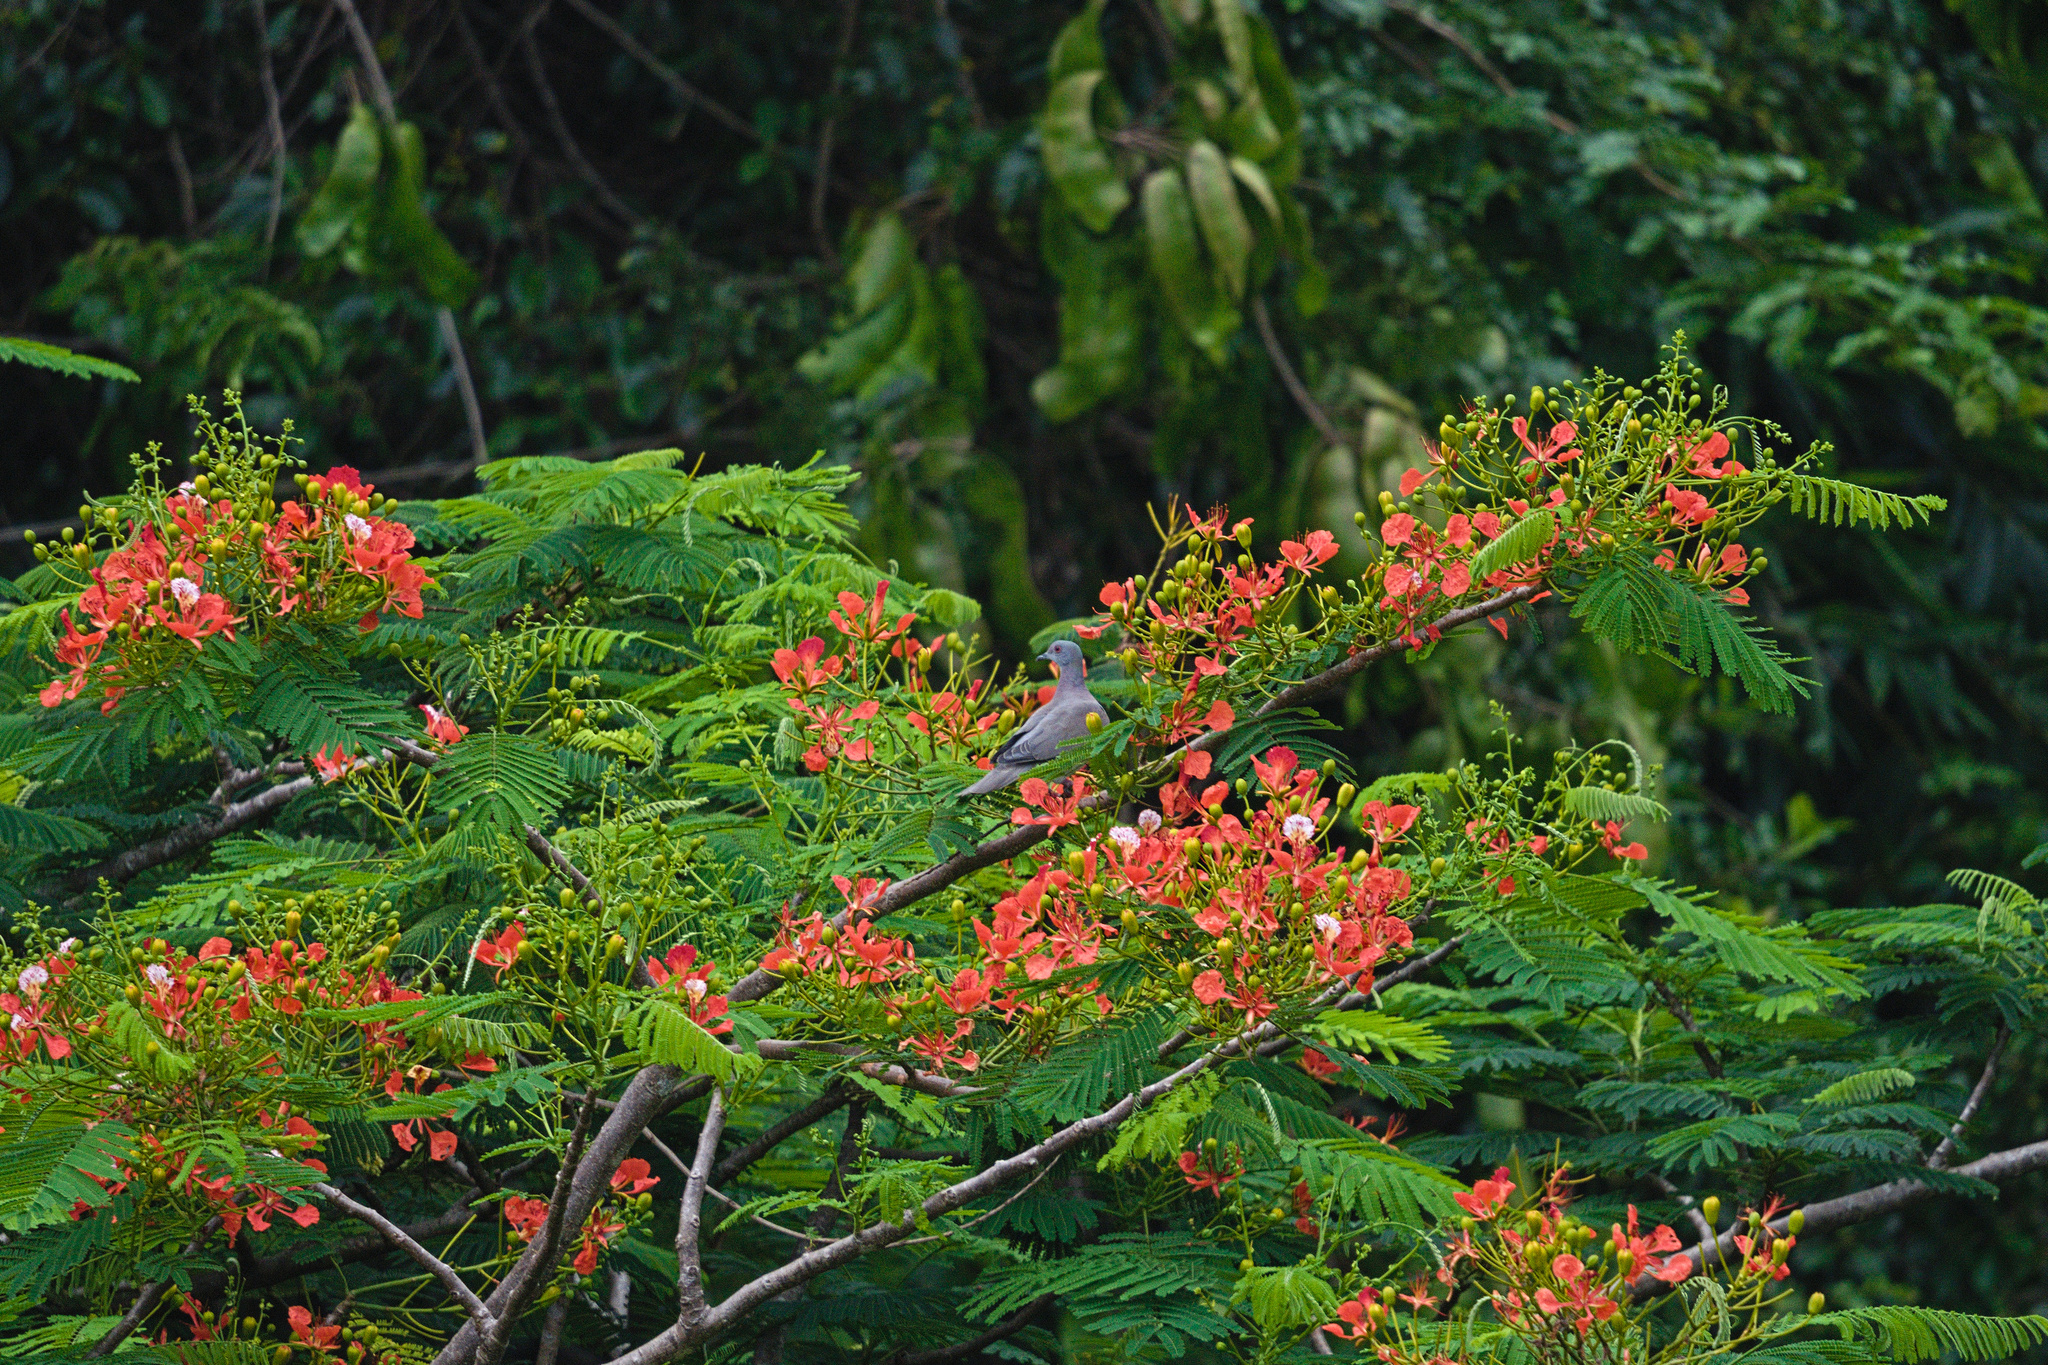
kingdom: Animalia
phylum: Chordata
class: Aves
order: Columbiformes
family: Columbidae
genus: Patagioenas
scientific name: Patagioenas cayennensis
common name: Pale-vented pigeon
